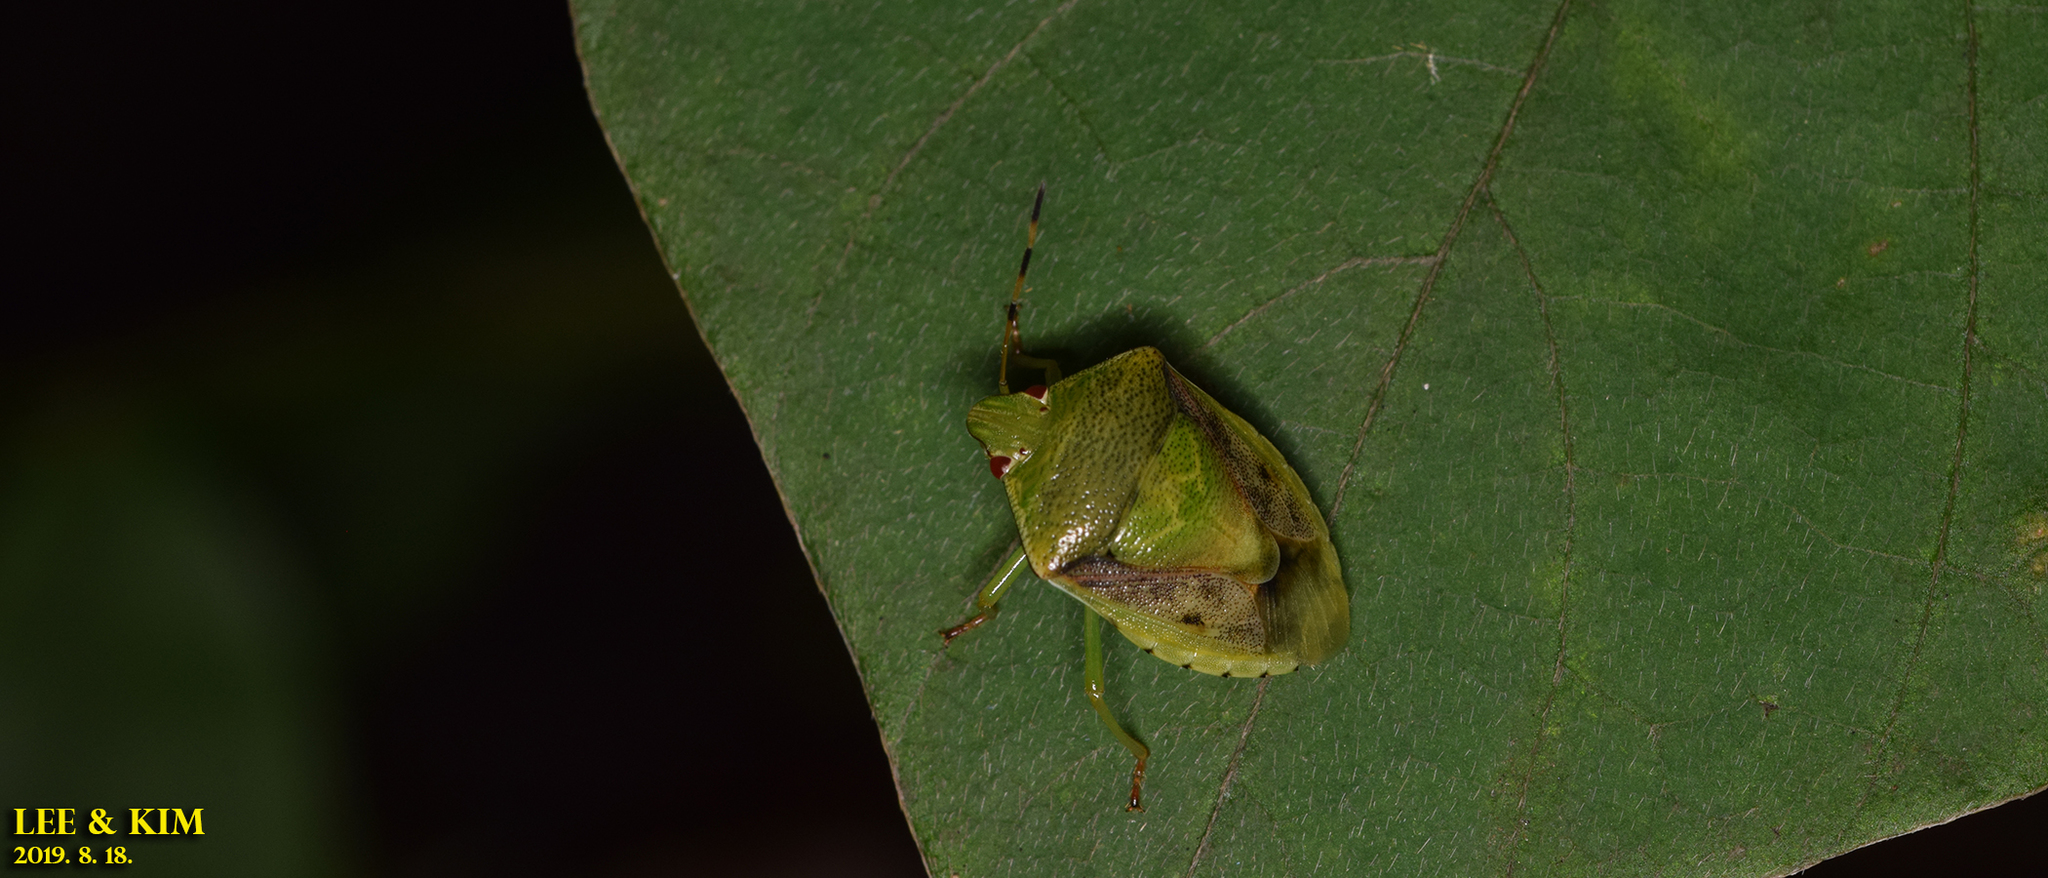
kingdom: Animalia
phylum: Arthropoda
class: Insecta
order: Hemiptera
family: Pentatomidae
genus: Plautia
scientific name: Plautia stali
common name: Stink bug
